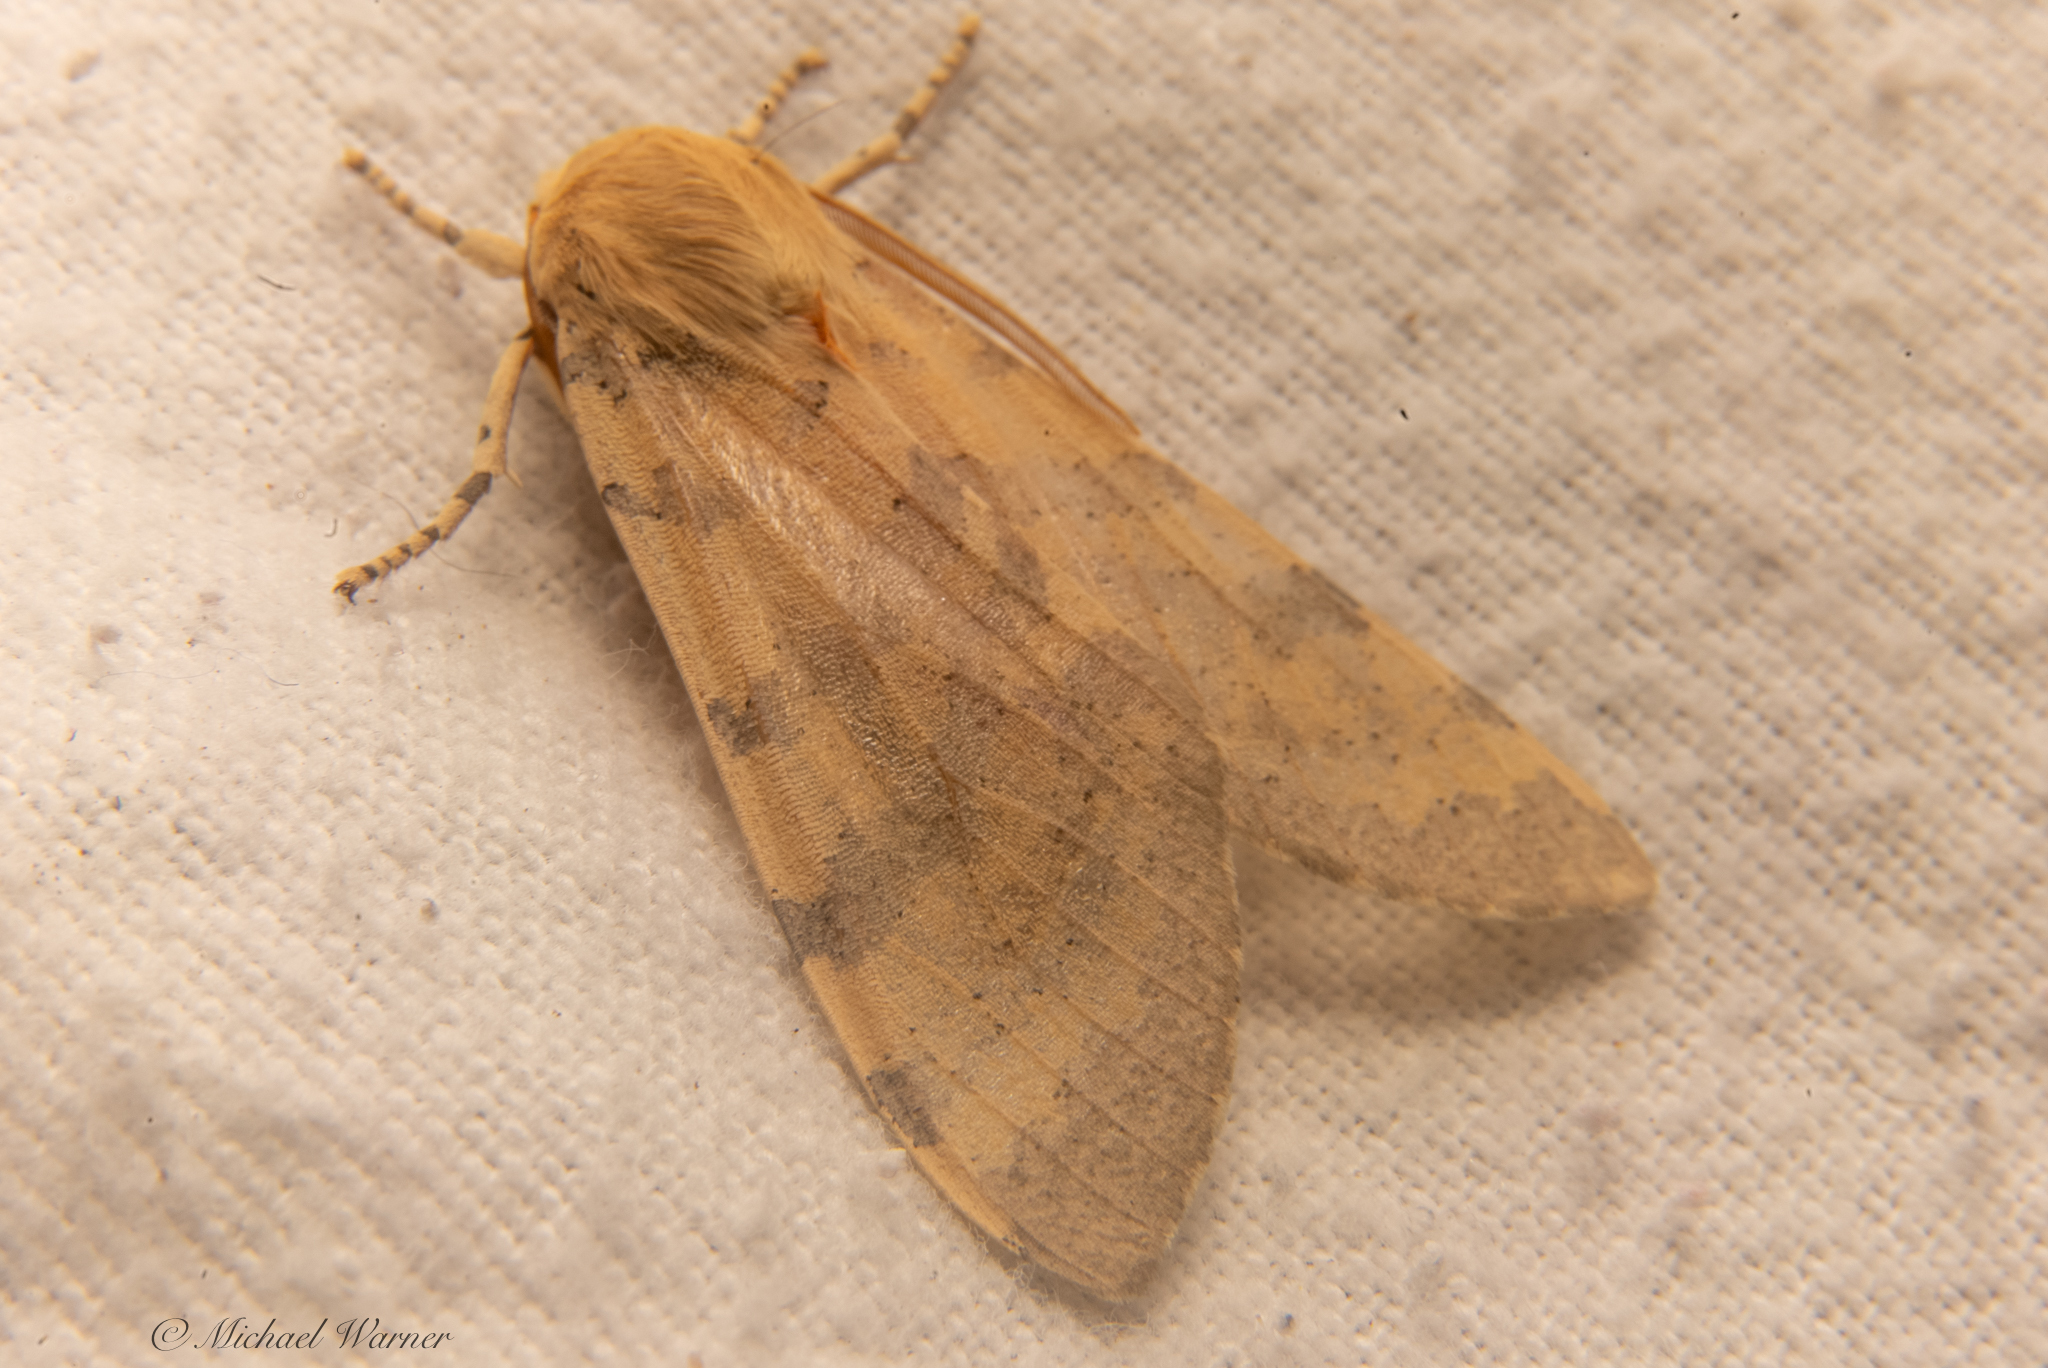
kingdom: Animalia
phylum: Arthropoda
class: Insecta
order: Lepidoptera
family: Erebidae
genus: Hemihyalea
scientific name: Hemihyalea edwardsii
